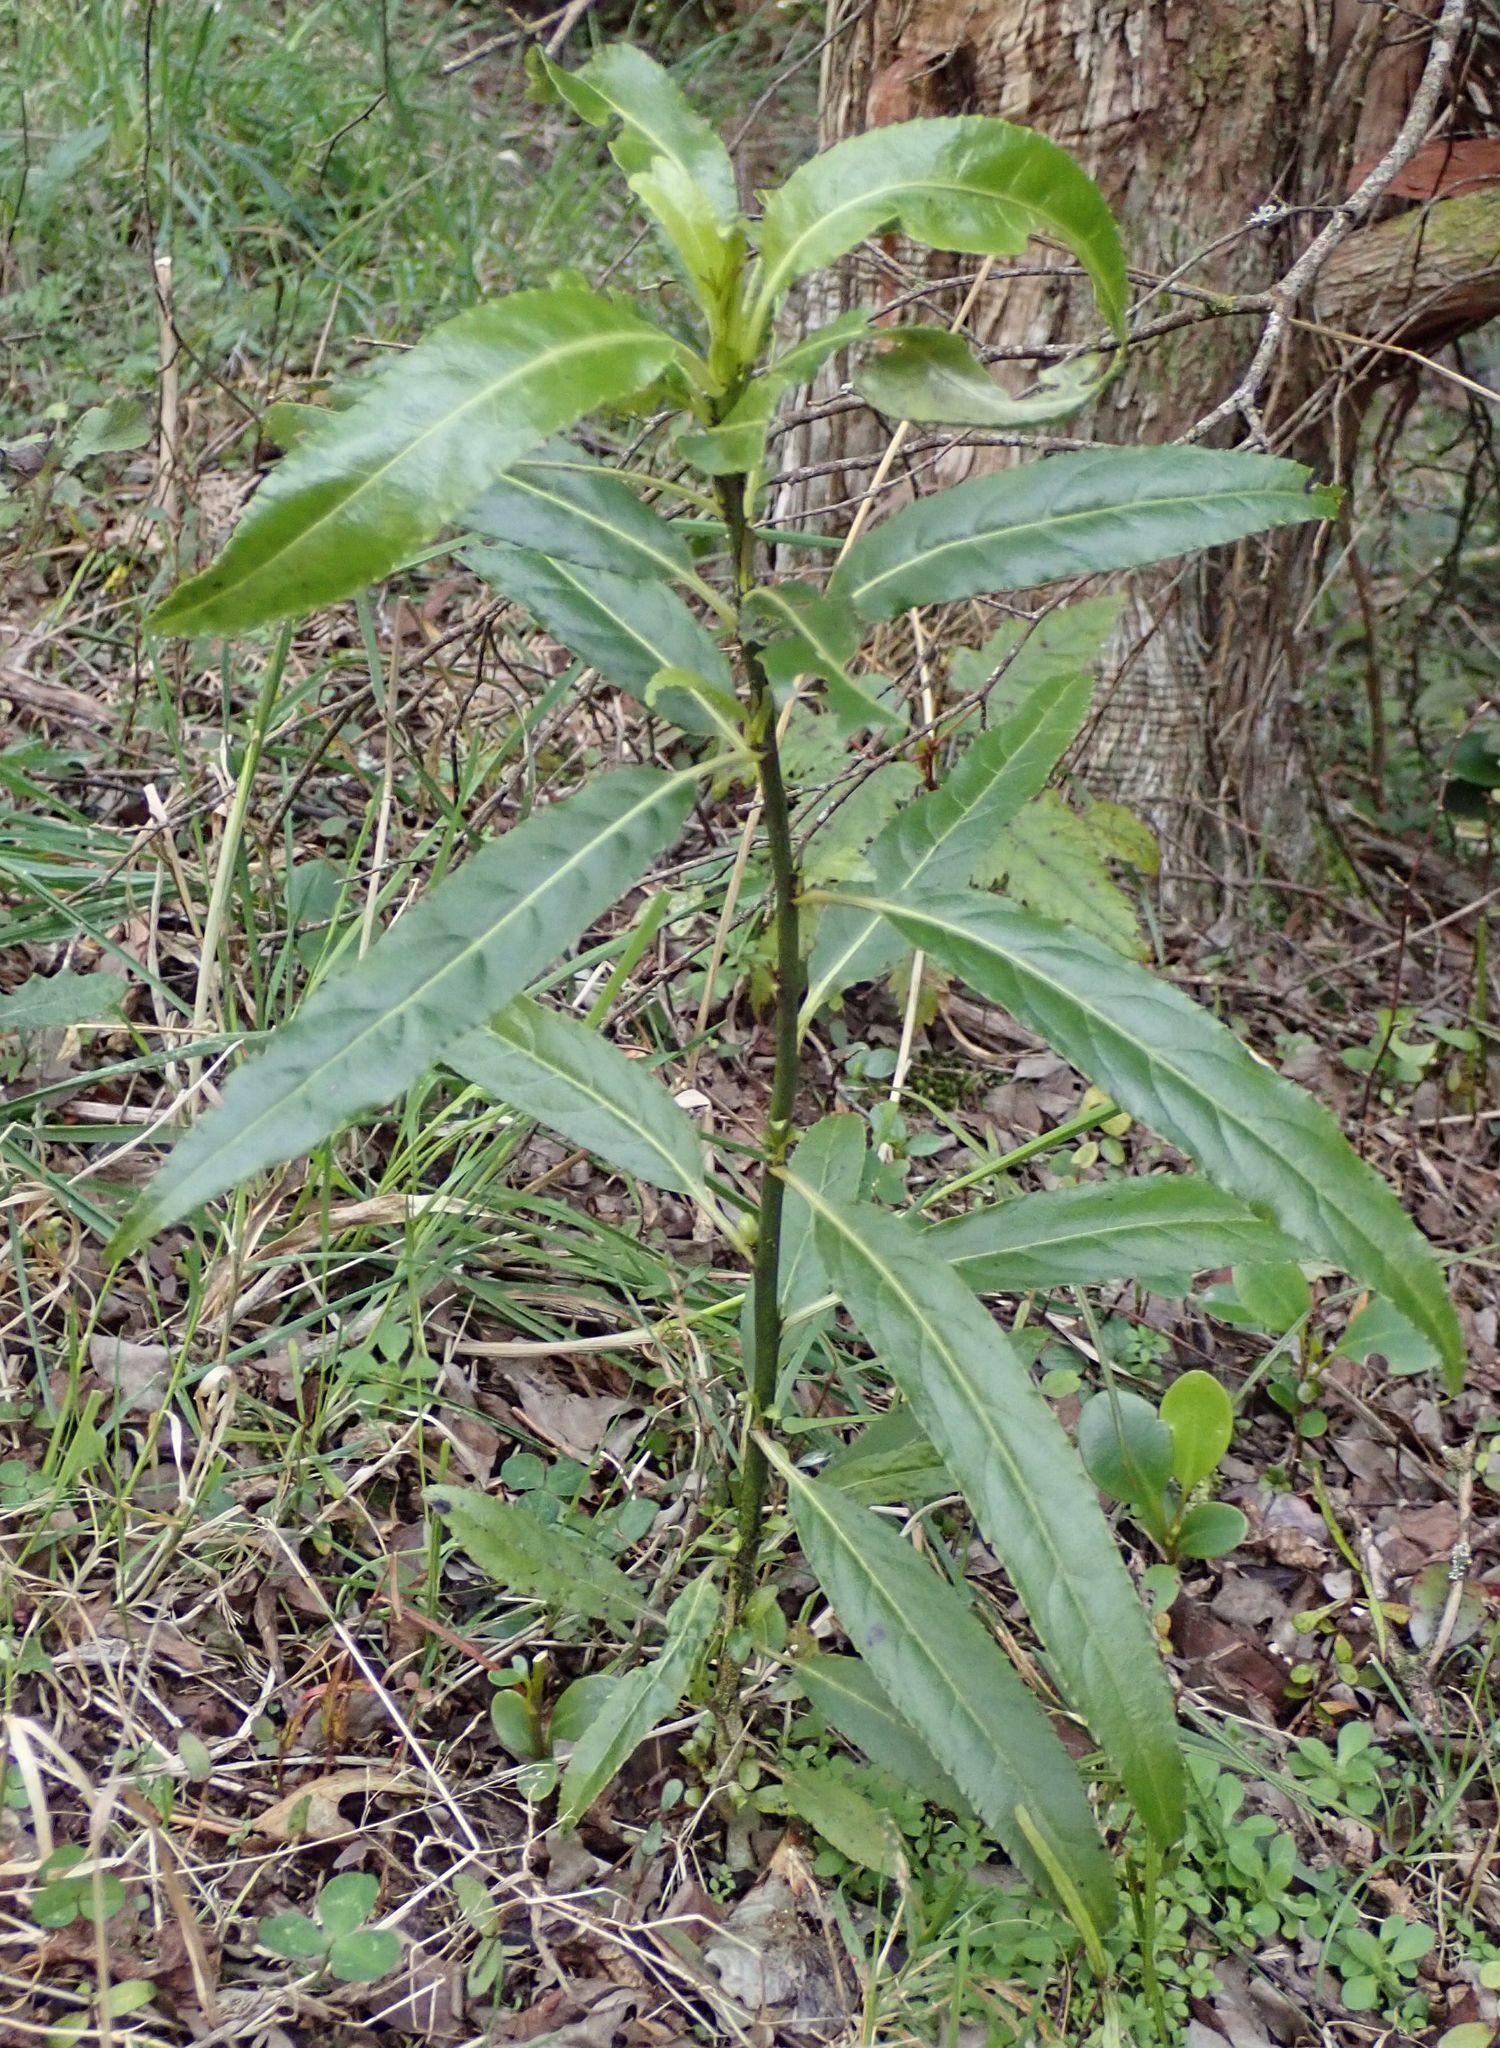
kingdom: Plantae
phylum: Tracheophyta
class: Magnoliopsida
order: Malpighiales
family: Violaceae
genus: Melicytus
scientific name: Melicytus lanceolatus
